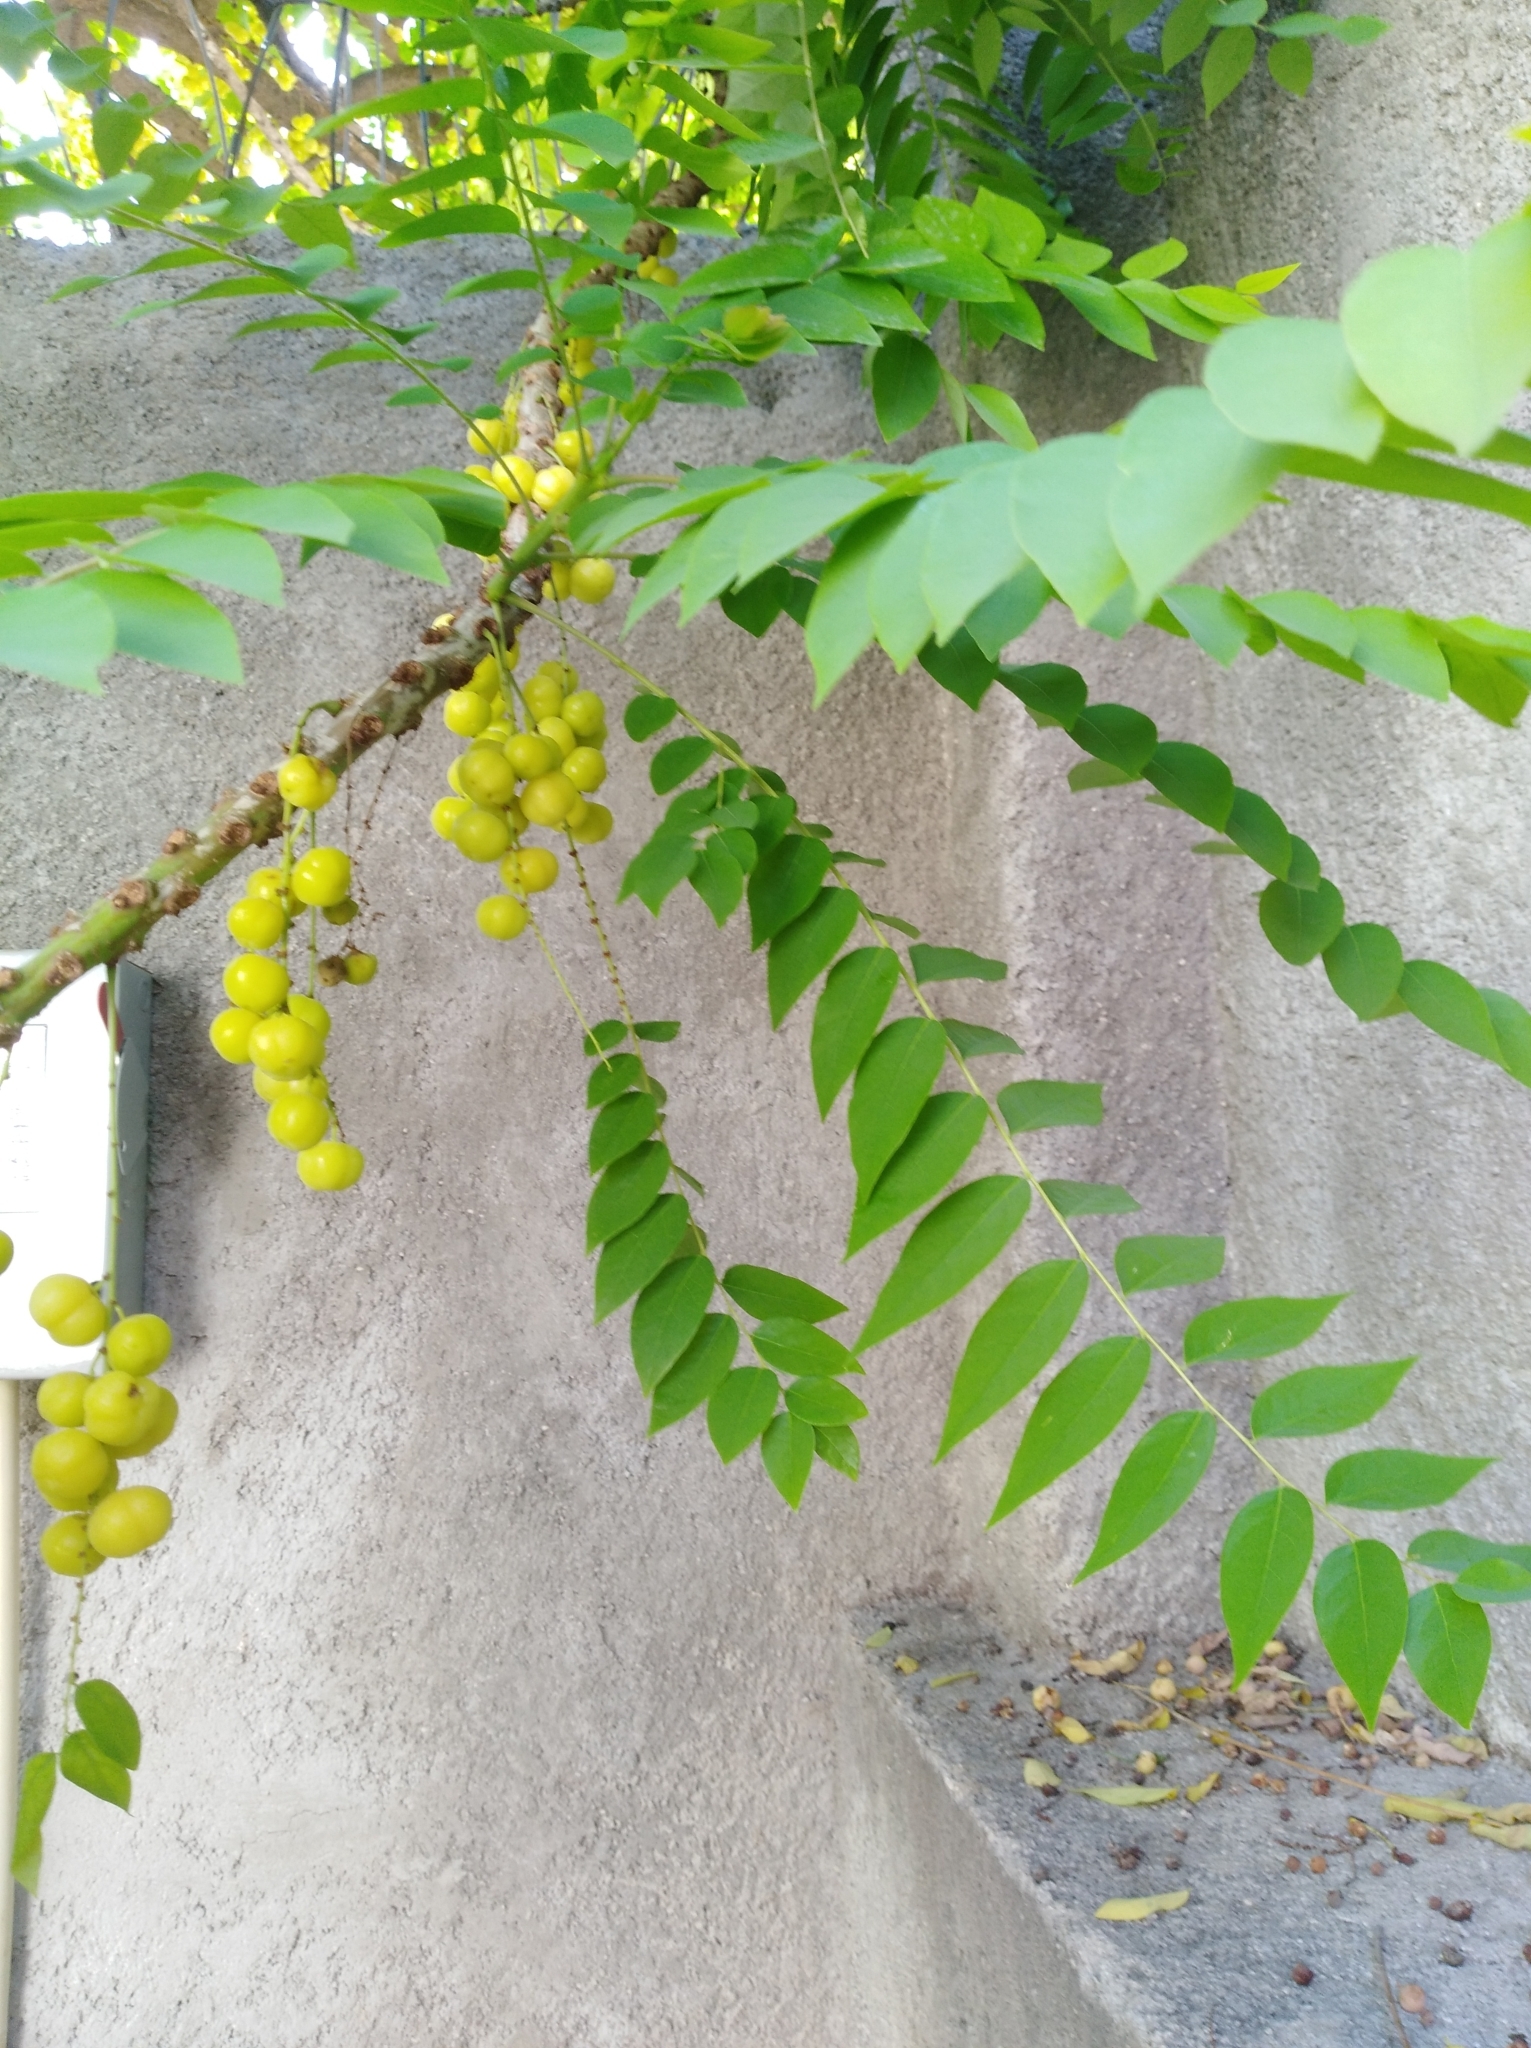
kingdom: Plantae
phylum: Tracheophyta
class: Magnoliopsida
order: Malpighiales
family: Phyllanthaceae
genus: Phyllanthus
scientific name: Phyllanthus acidus
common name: Tahitian gooseberry tree
